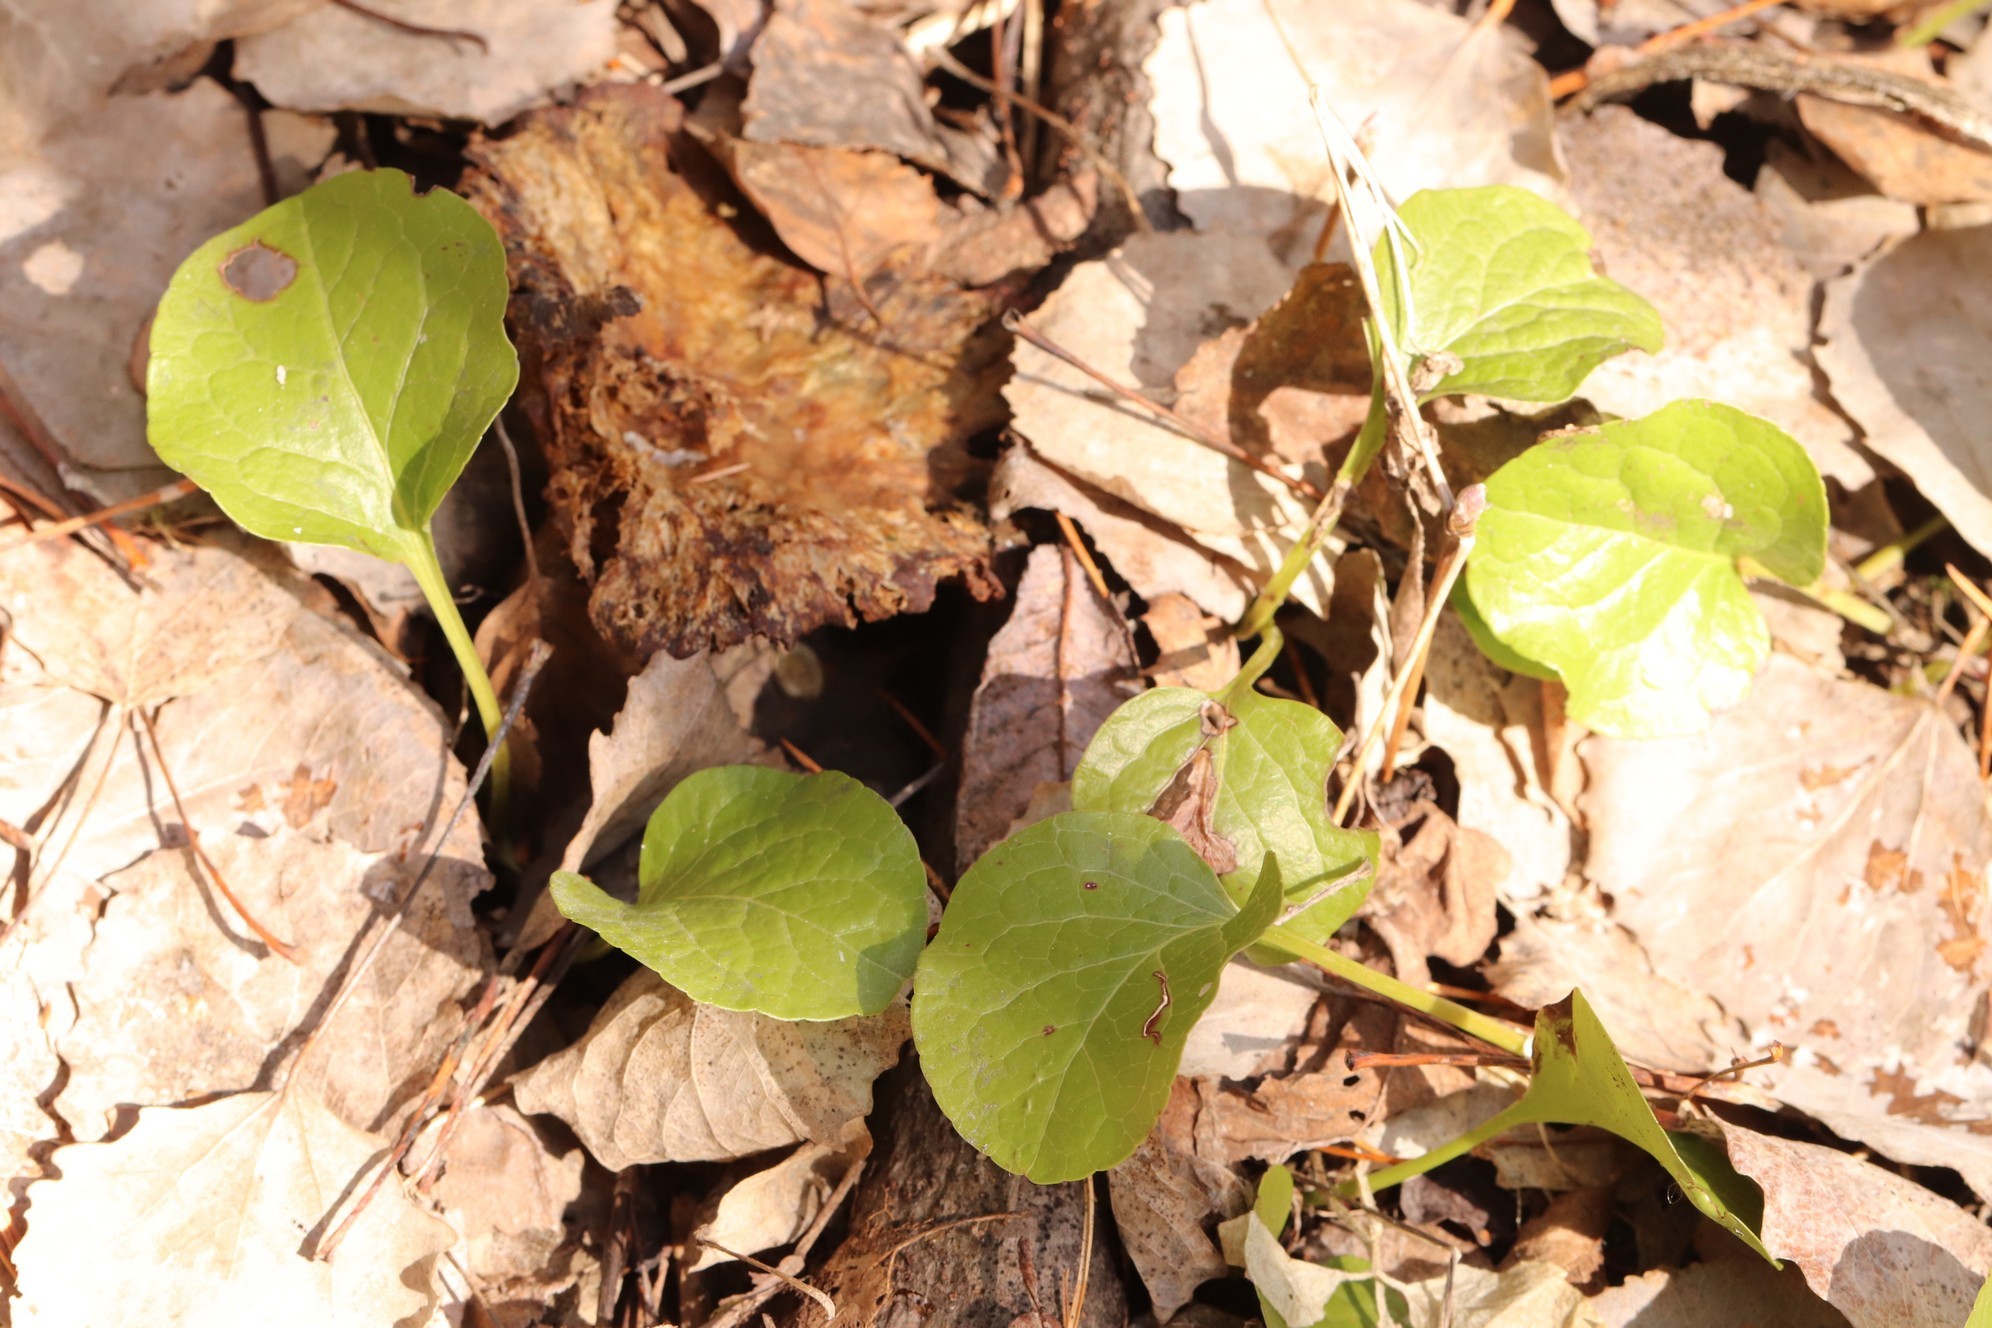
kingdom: Plantae
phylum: Tracheophyta
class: Magnoliopsida
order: Ericales
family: Ericaceae
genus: Pyrola
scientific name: Pyrola rotundifolia
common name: Round-leaved wintergreen
